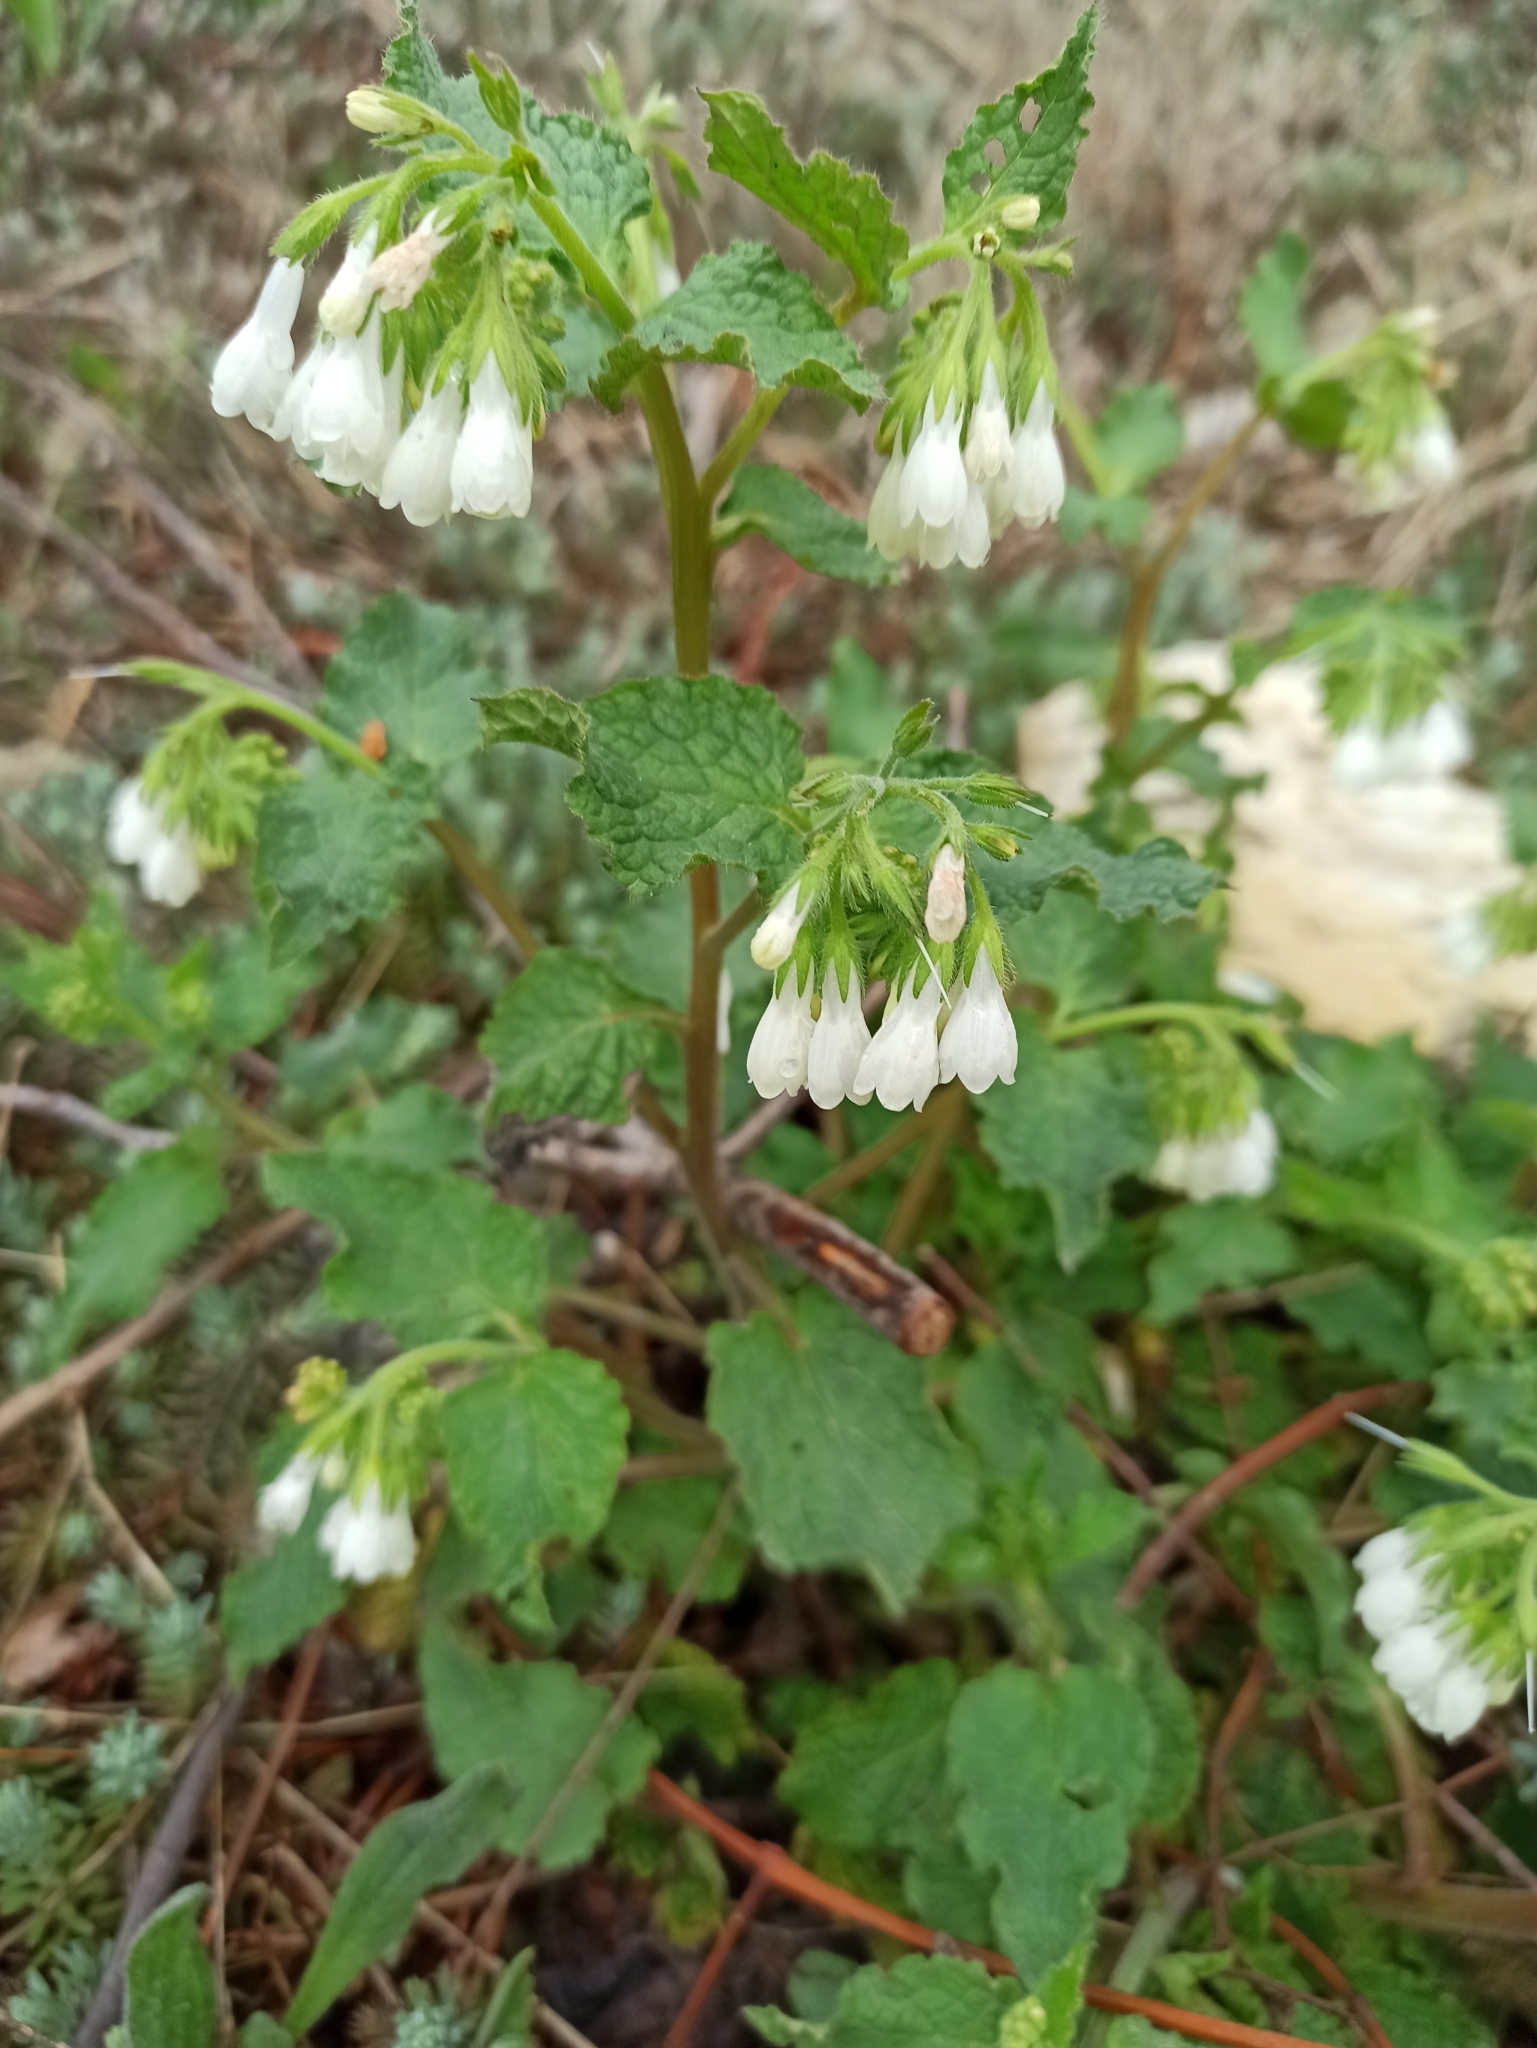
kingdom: Plantae
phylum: Tracheophyta
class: Magnoliopsida
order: Boraginales
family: Boraginaceae
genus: Symphytum
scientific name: Symphytum grandiflorum
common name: Creeping comfrey
